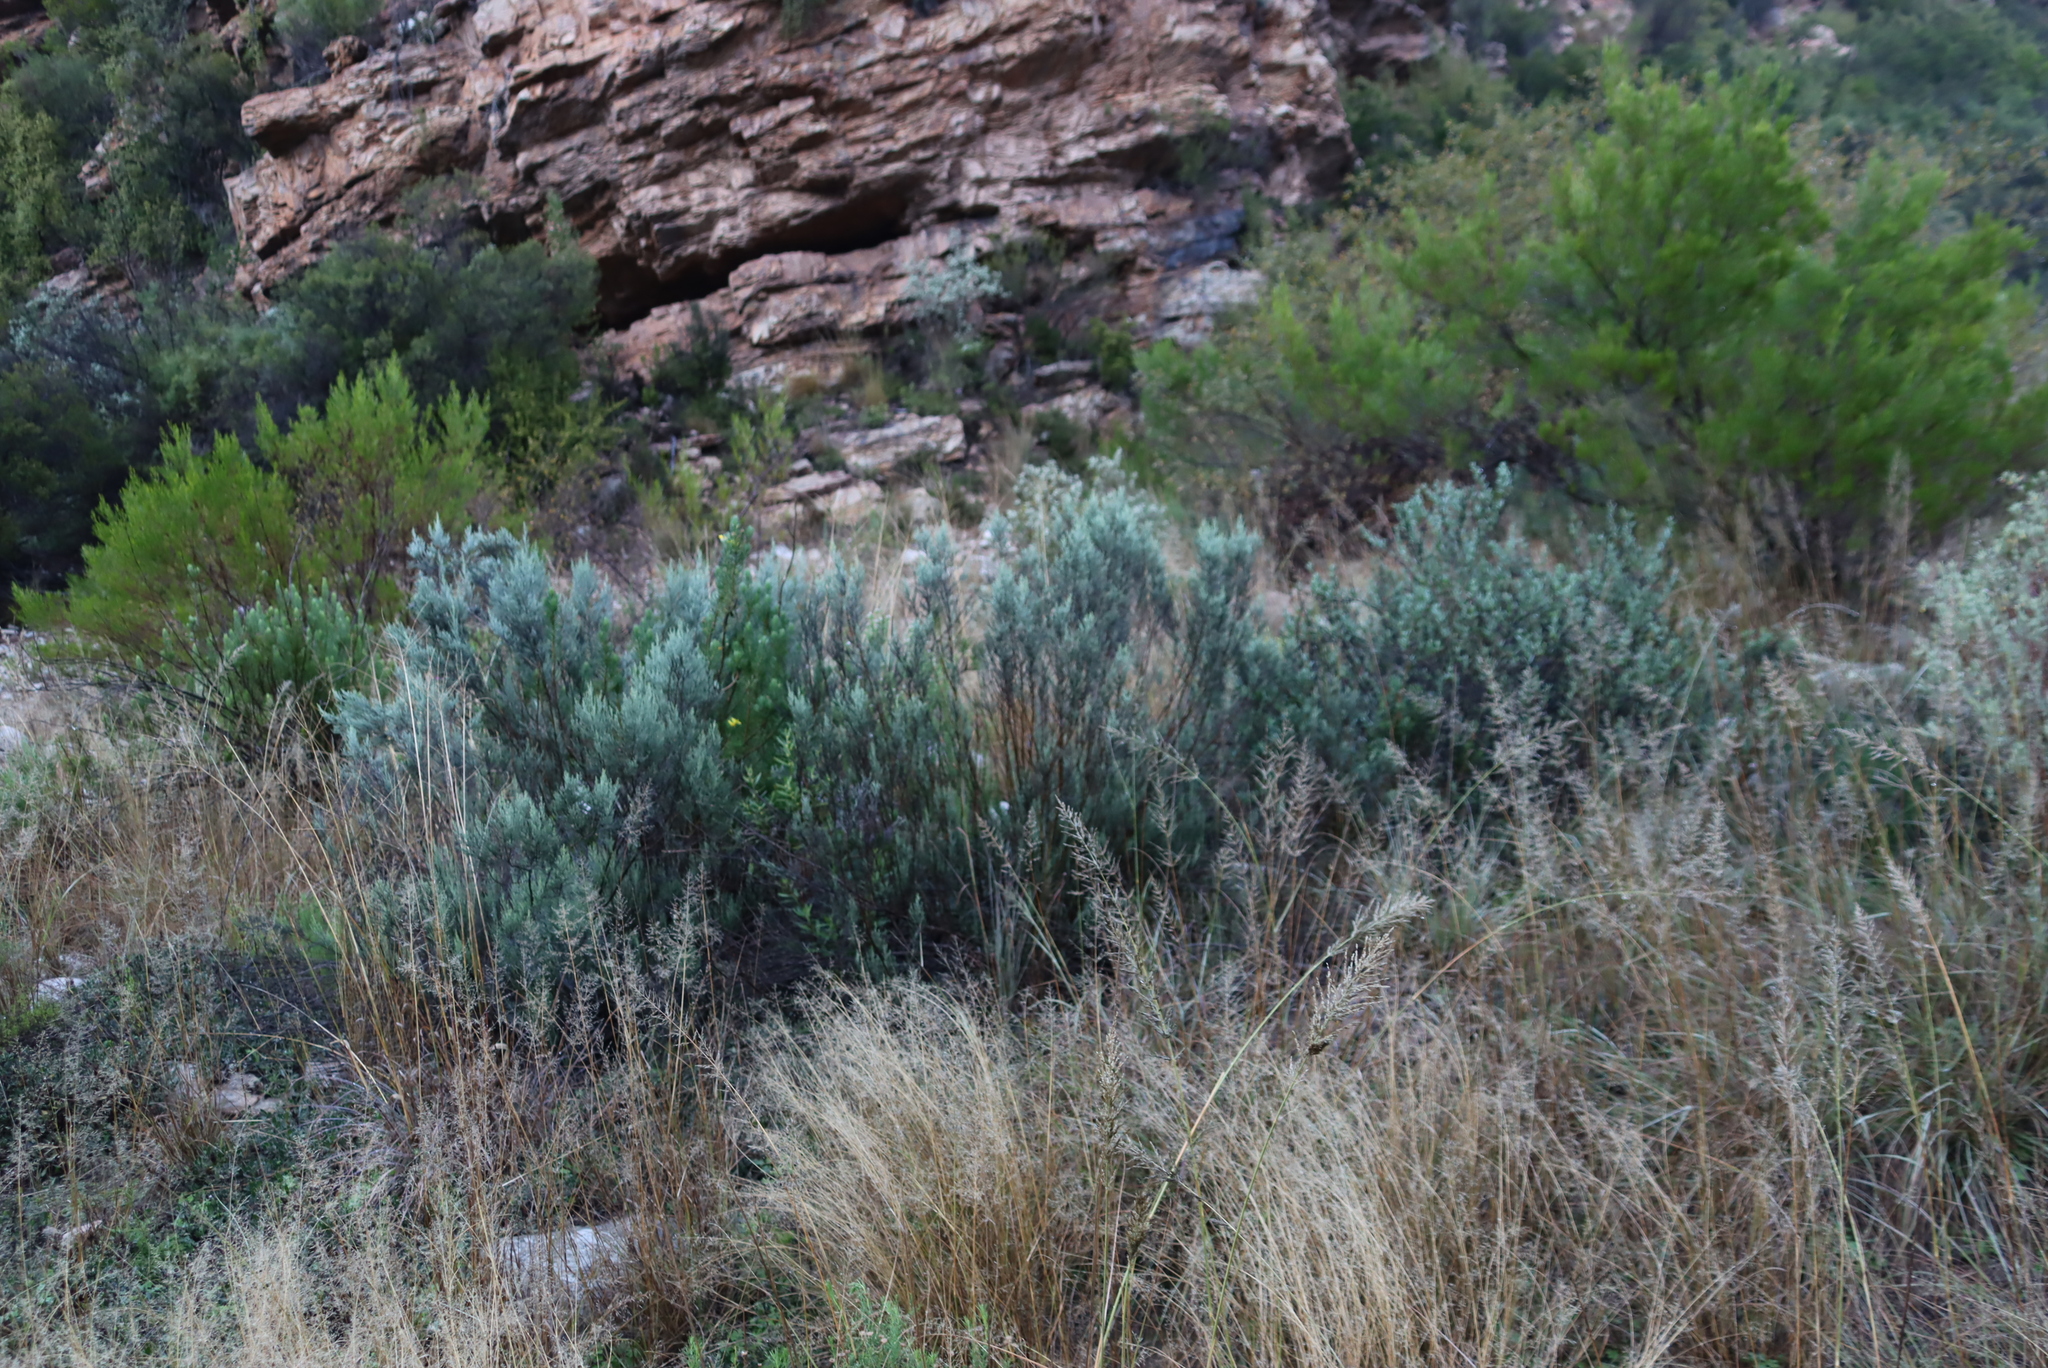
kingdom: Plantae
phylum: Tracheophyta
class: Magnoliopsida
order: Sapindales
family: Sapindaceae
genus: Dodonaea
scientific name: Dodonaea viscosa
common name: Hopbush
